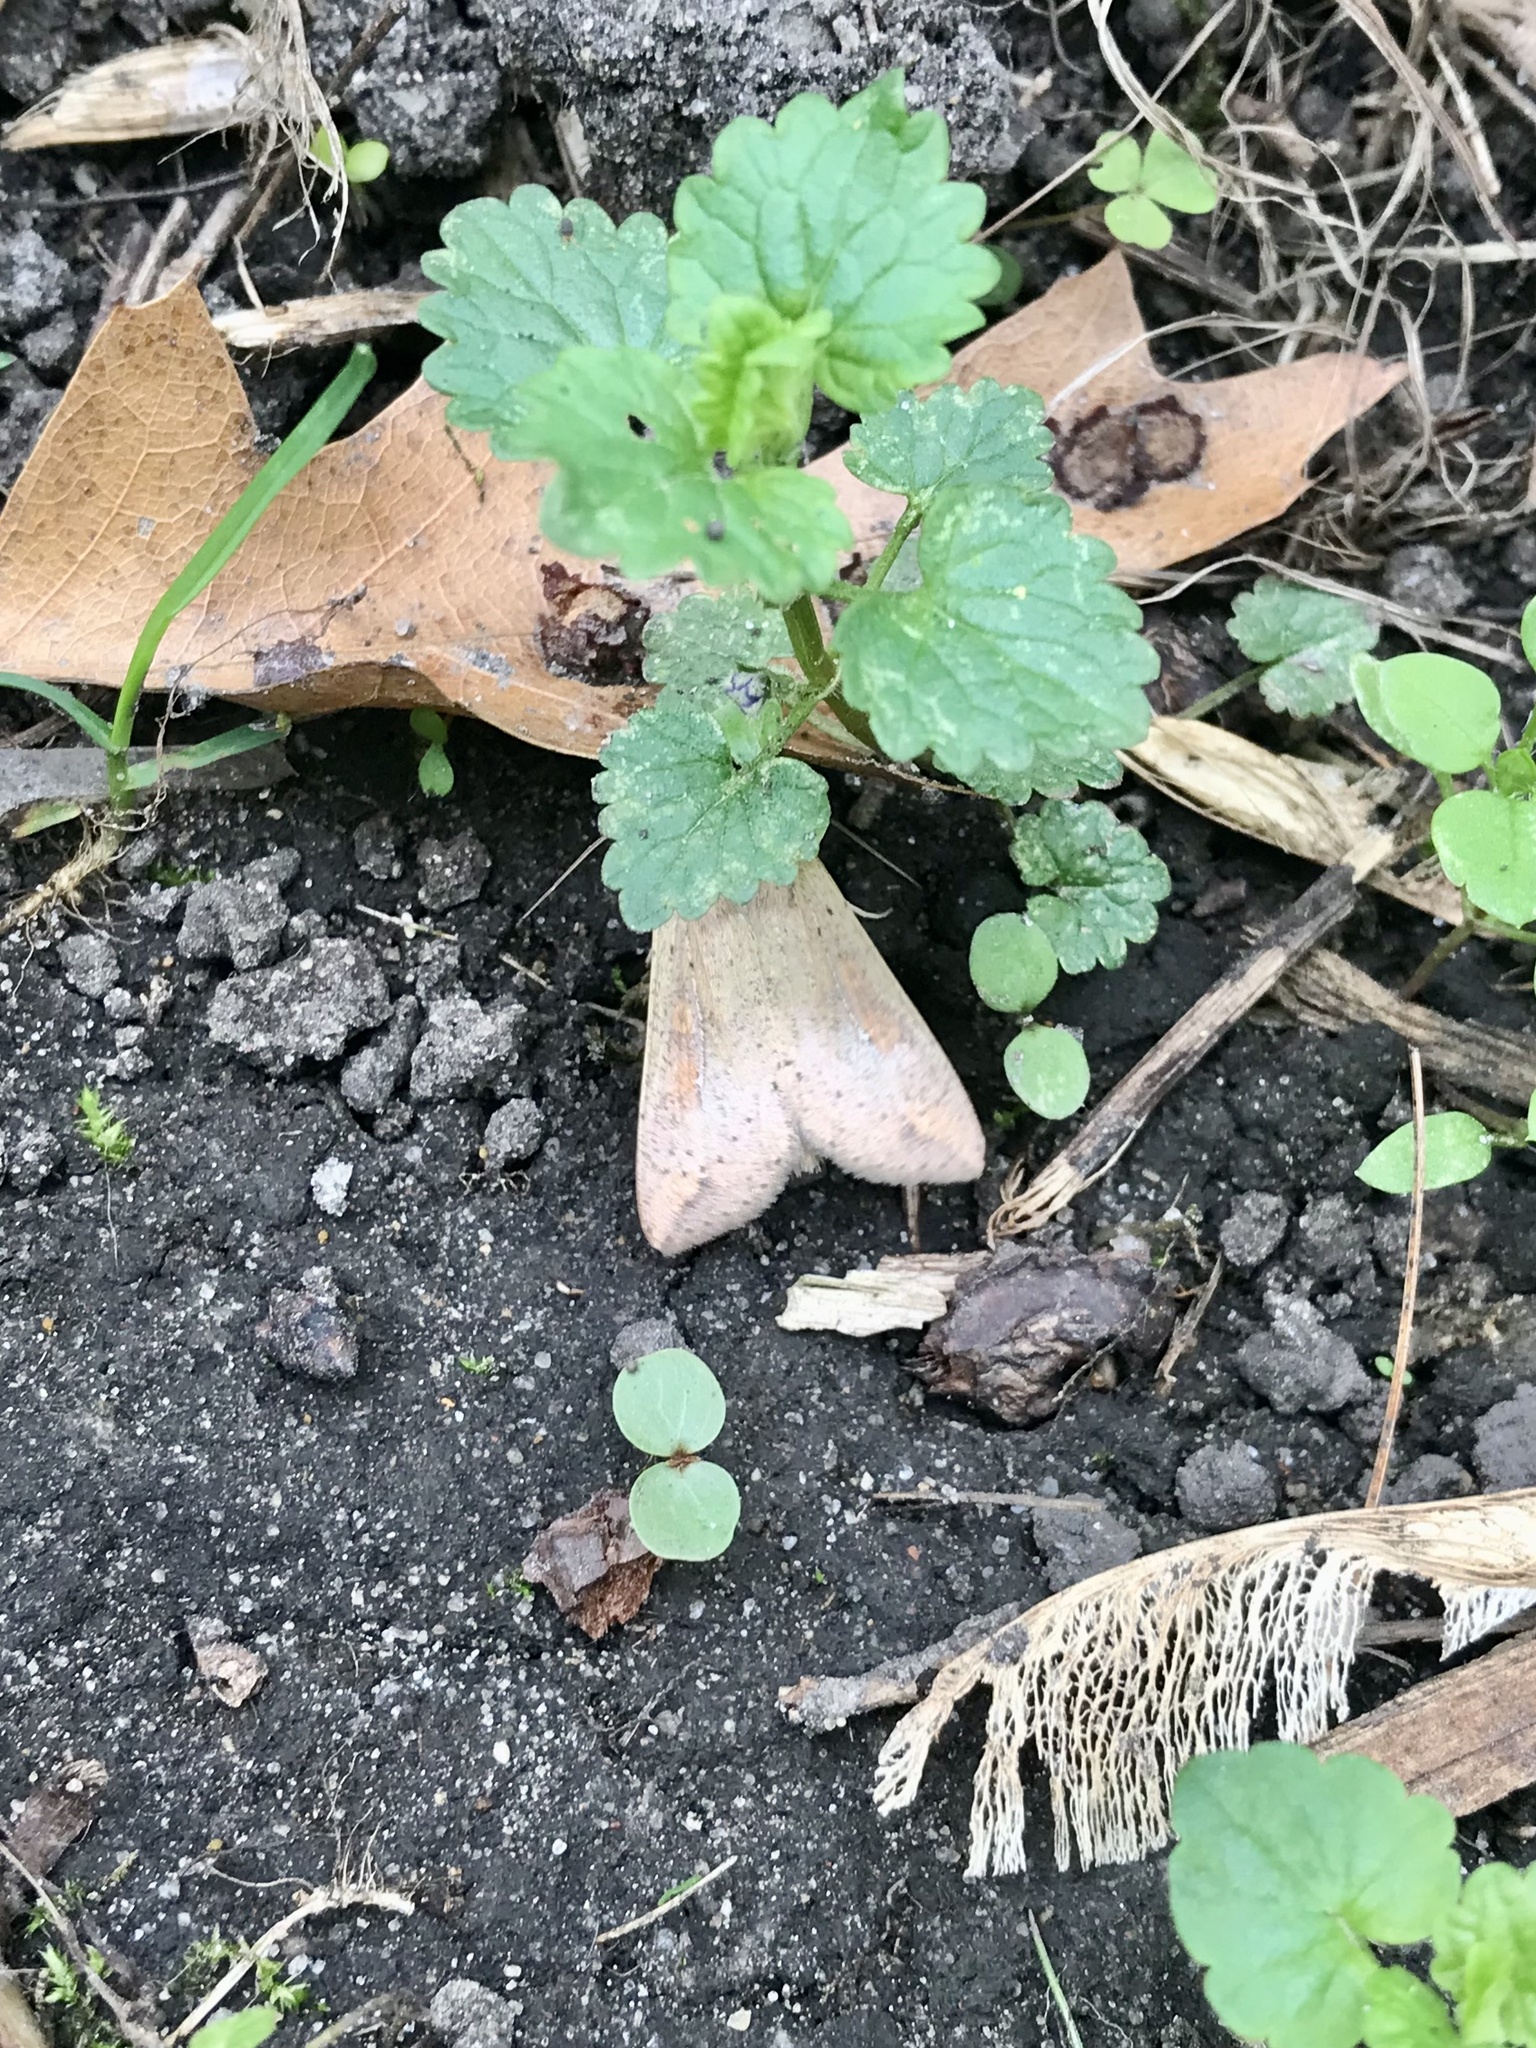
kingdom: Animalia
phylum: Arthropoda
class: Insecta
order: Lepidoptera
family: Noctuidae
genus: Mythimna
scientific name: Mythimna unipuncta
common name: White-speck
